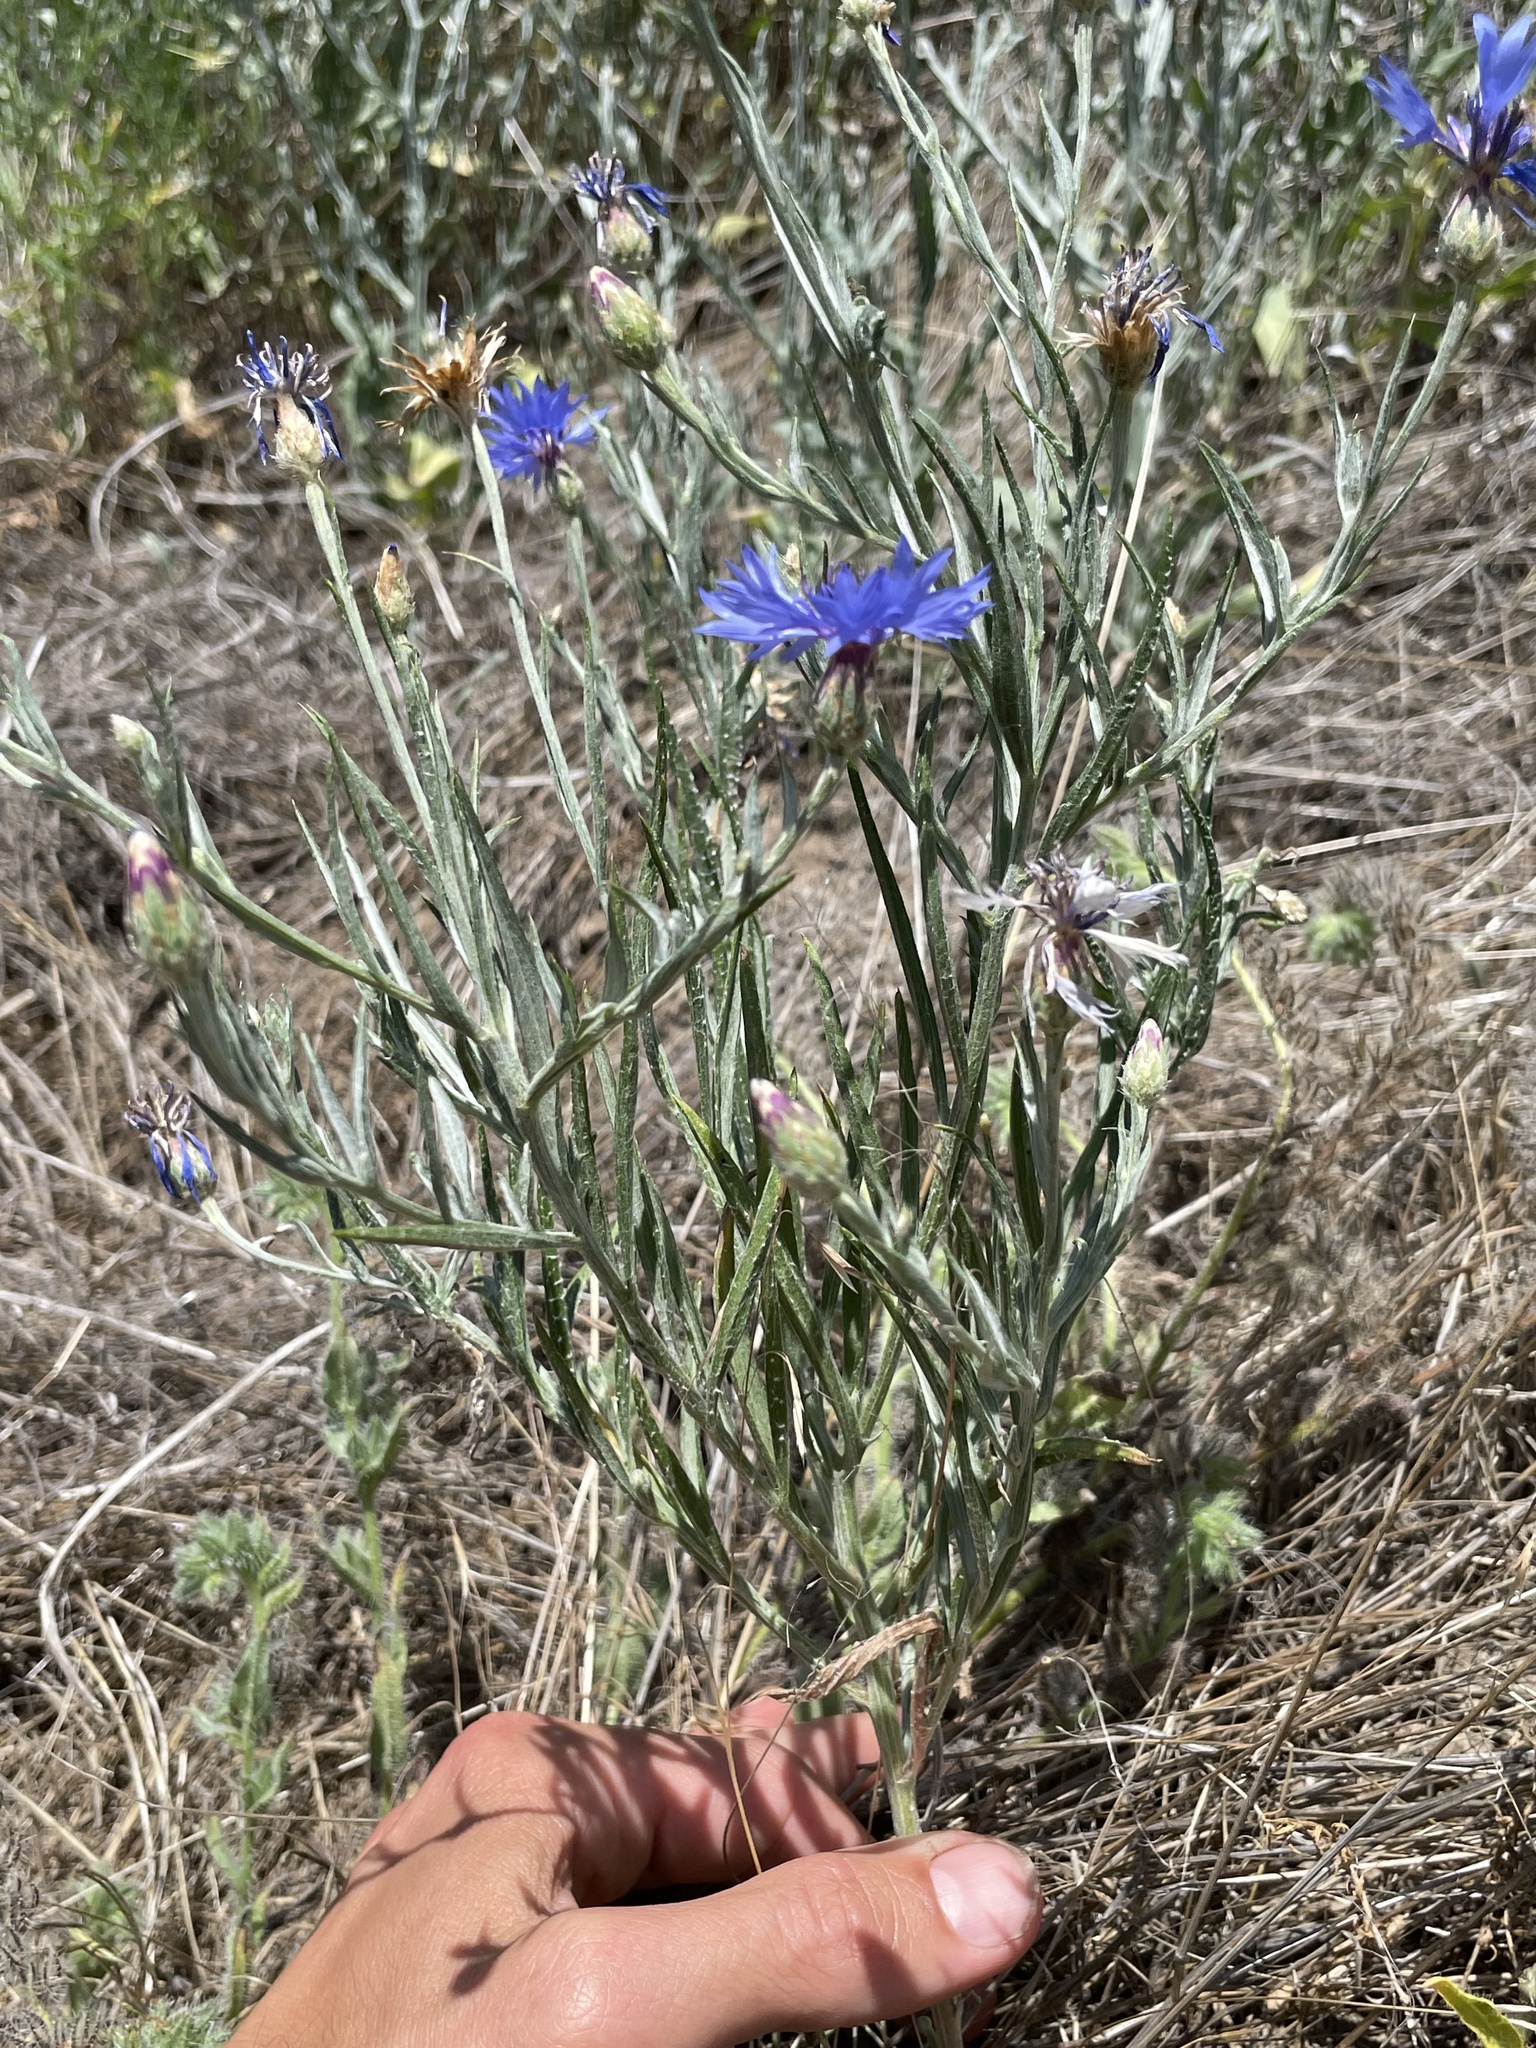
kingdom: Plantae
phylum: Tracheophyta
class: Magnoliopsida
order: Asterales
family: Asteraceae
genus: Centaurea
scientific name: Centaurea cyanus
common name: Cornflower
